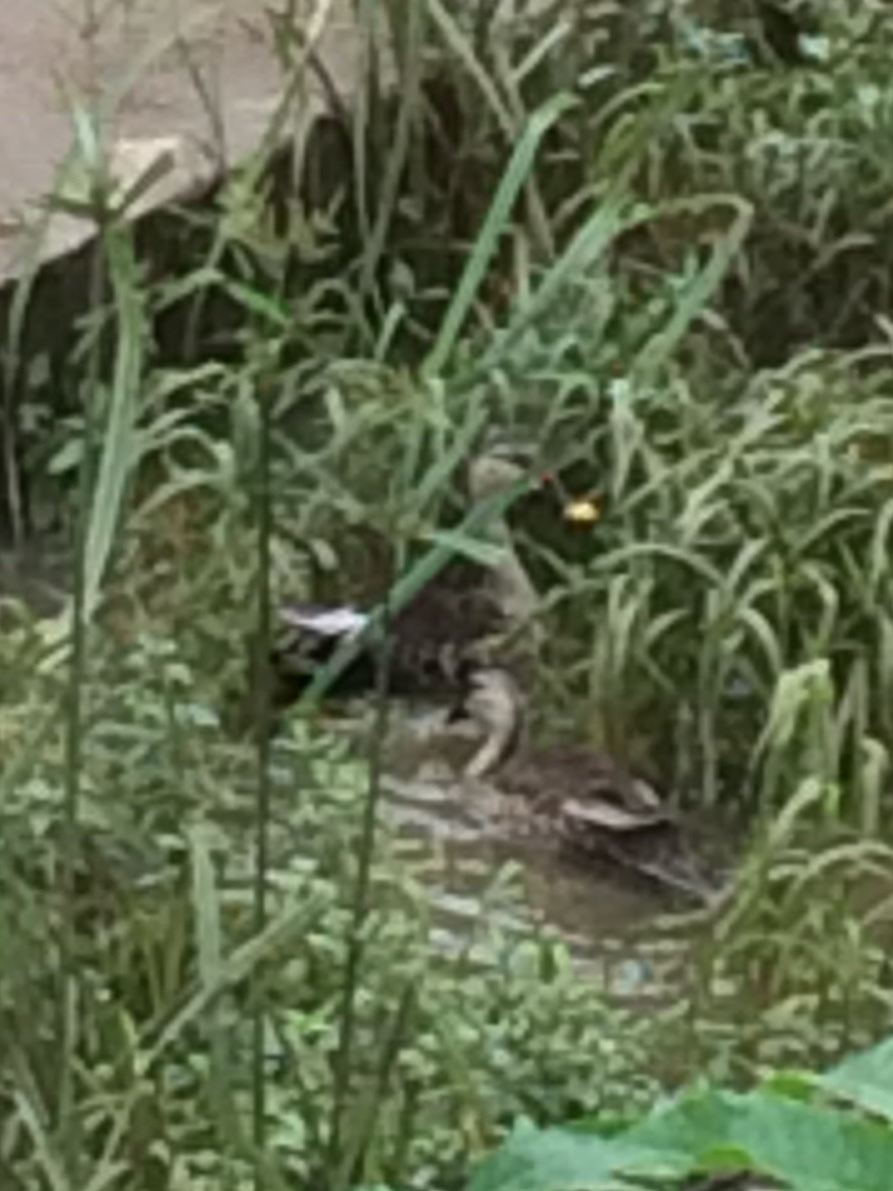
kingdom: Animalia
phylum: Chordata
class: Aves
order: Anseriformes
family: Anatidae
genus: Anas
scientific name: Anas poecilorhyncha
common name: Indian spot-billed duck
